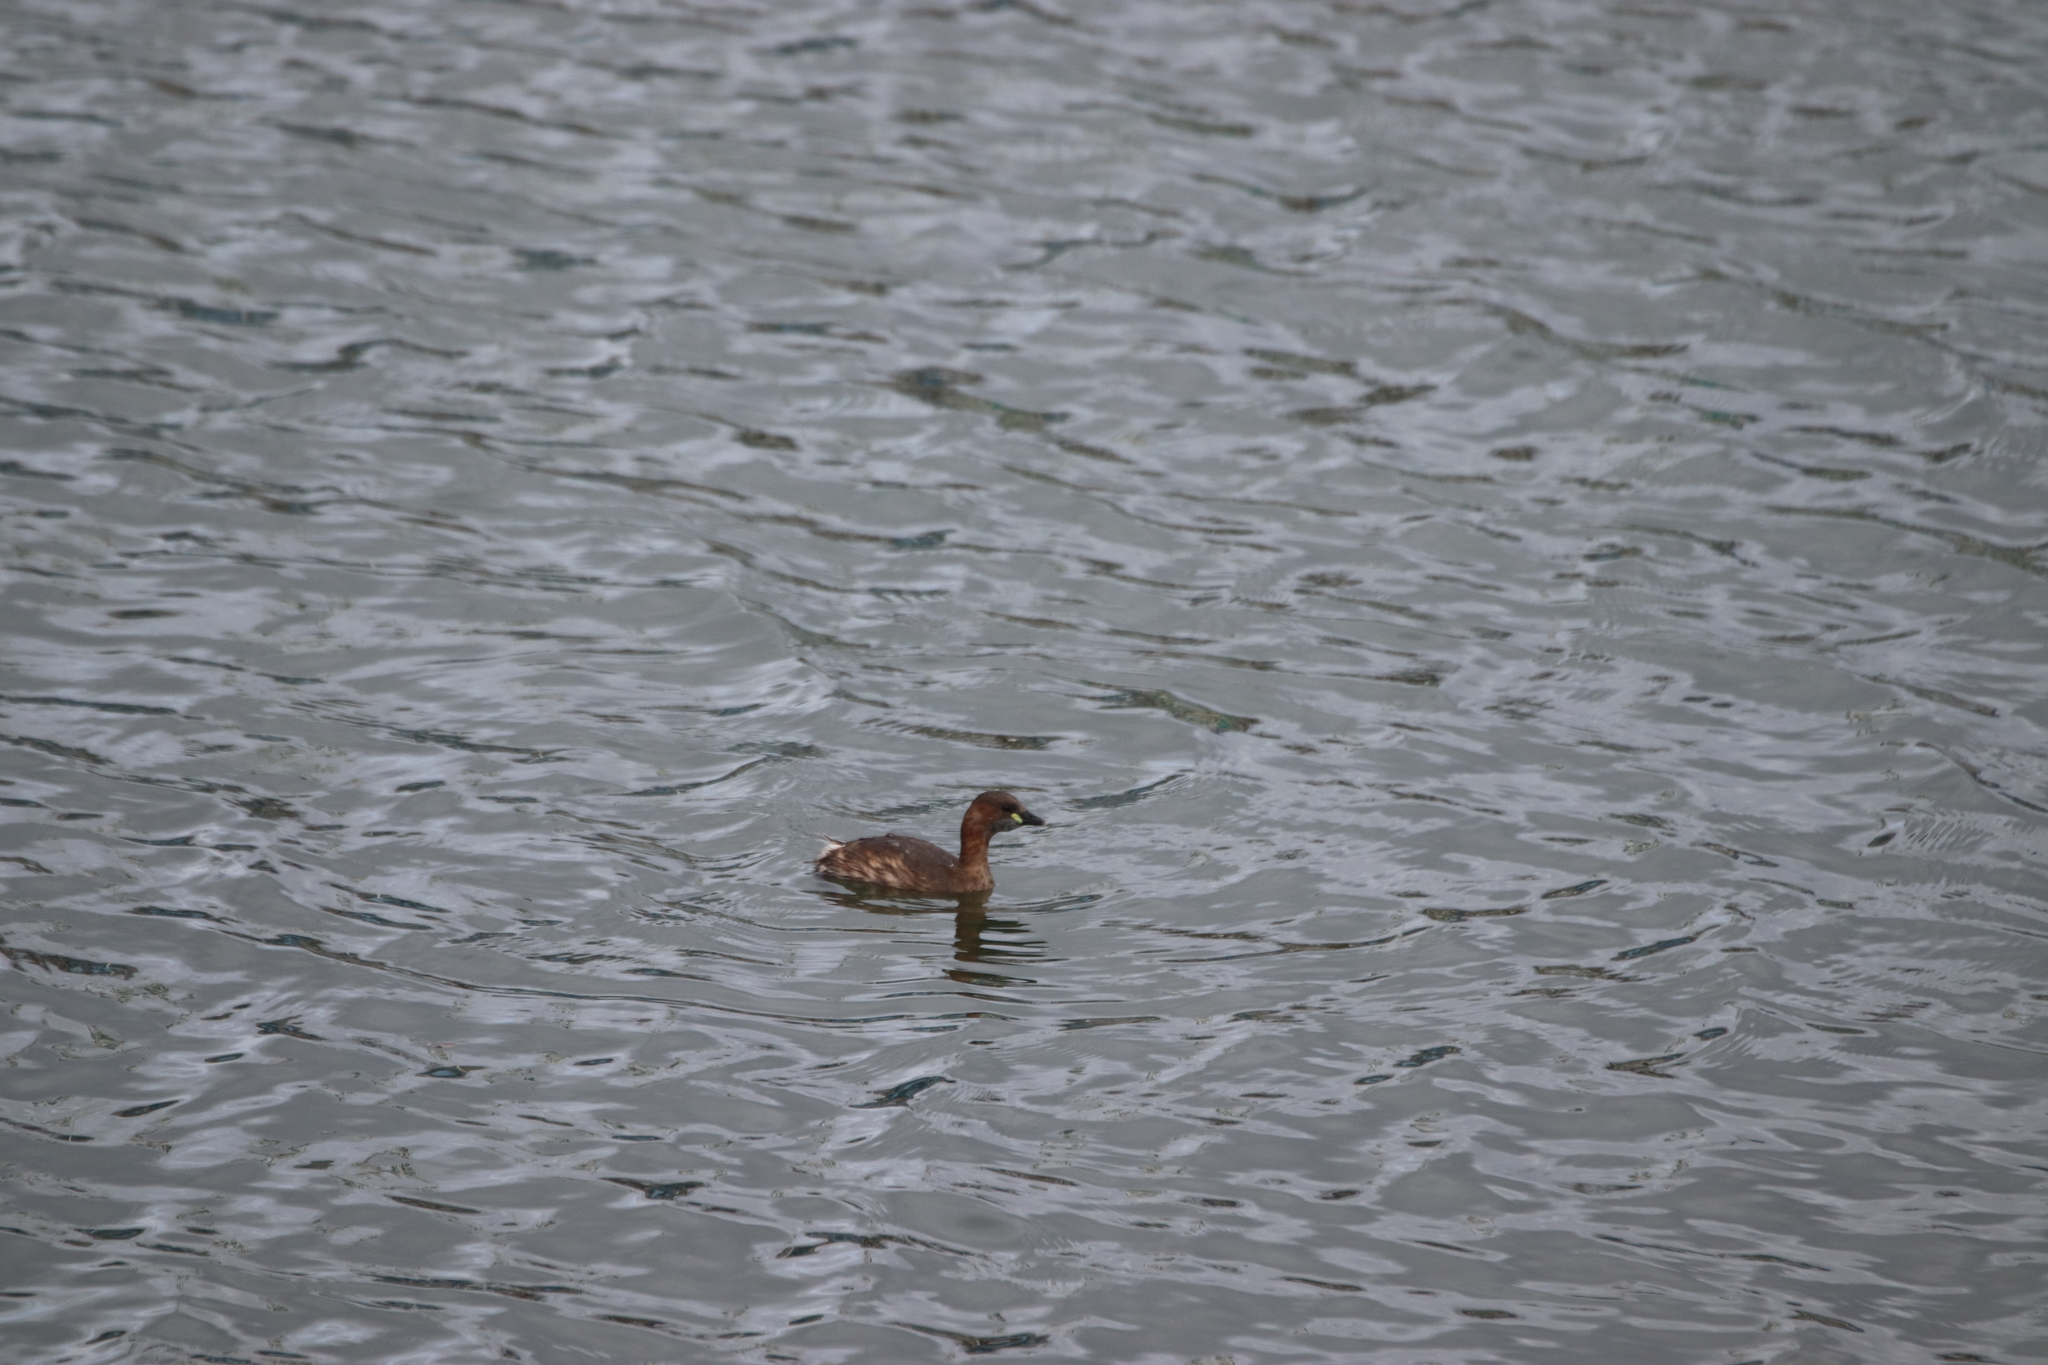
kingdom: Animalia
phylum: Chordata
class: Aves
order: Podicipediformes
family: Podicipedidae
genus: Tachybaptus
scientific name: Tachybaptus ruficollis
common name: Little grebe
